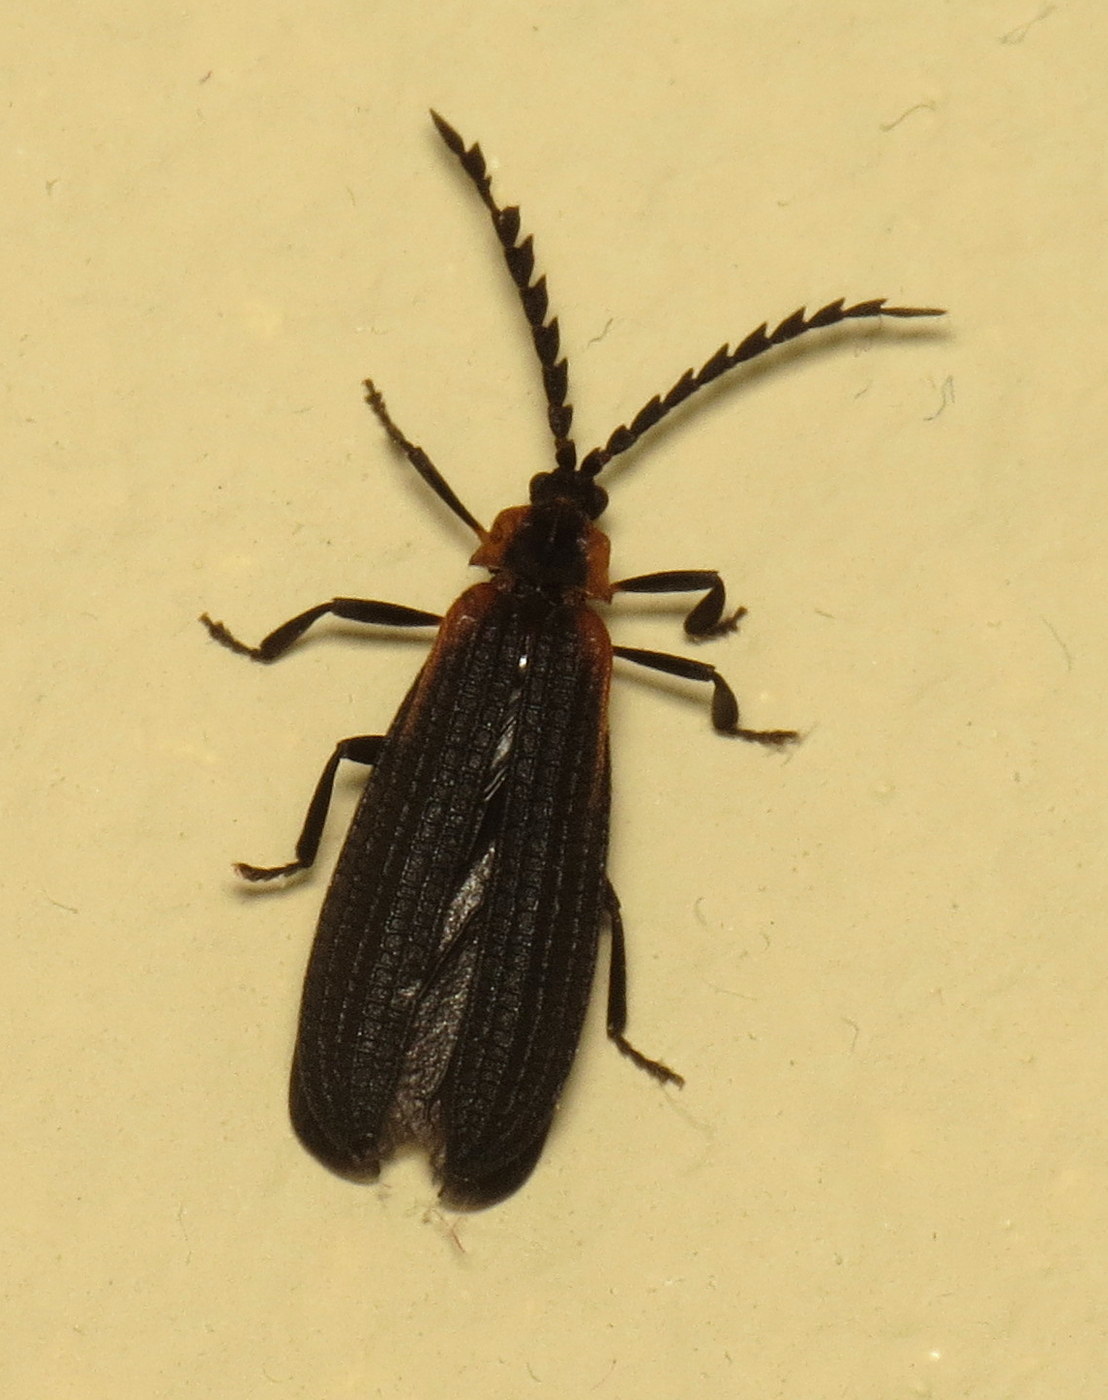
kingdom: Animalia
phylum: Arthropoda
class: Insecta
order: Coleoptera
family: Lycidae
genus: Leptoceletes
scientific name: Leptoceletes basalis
